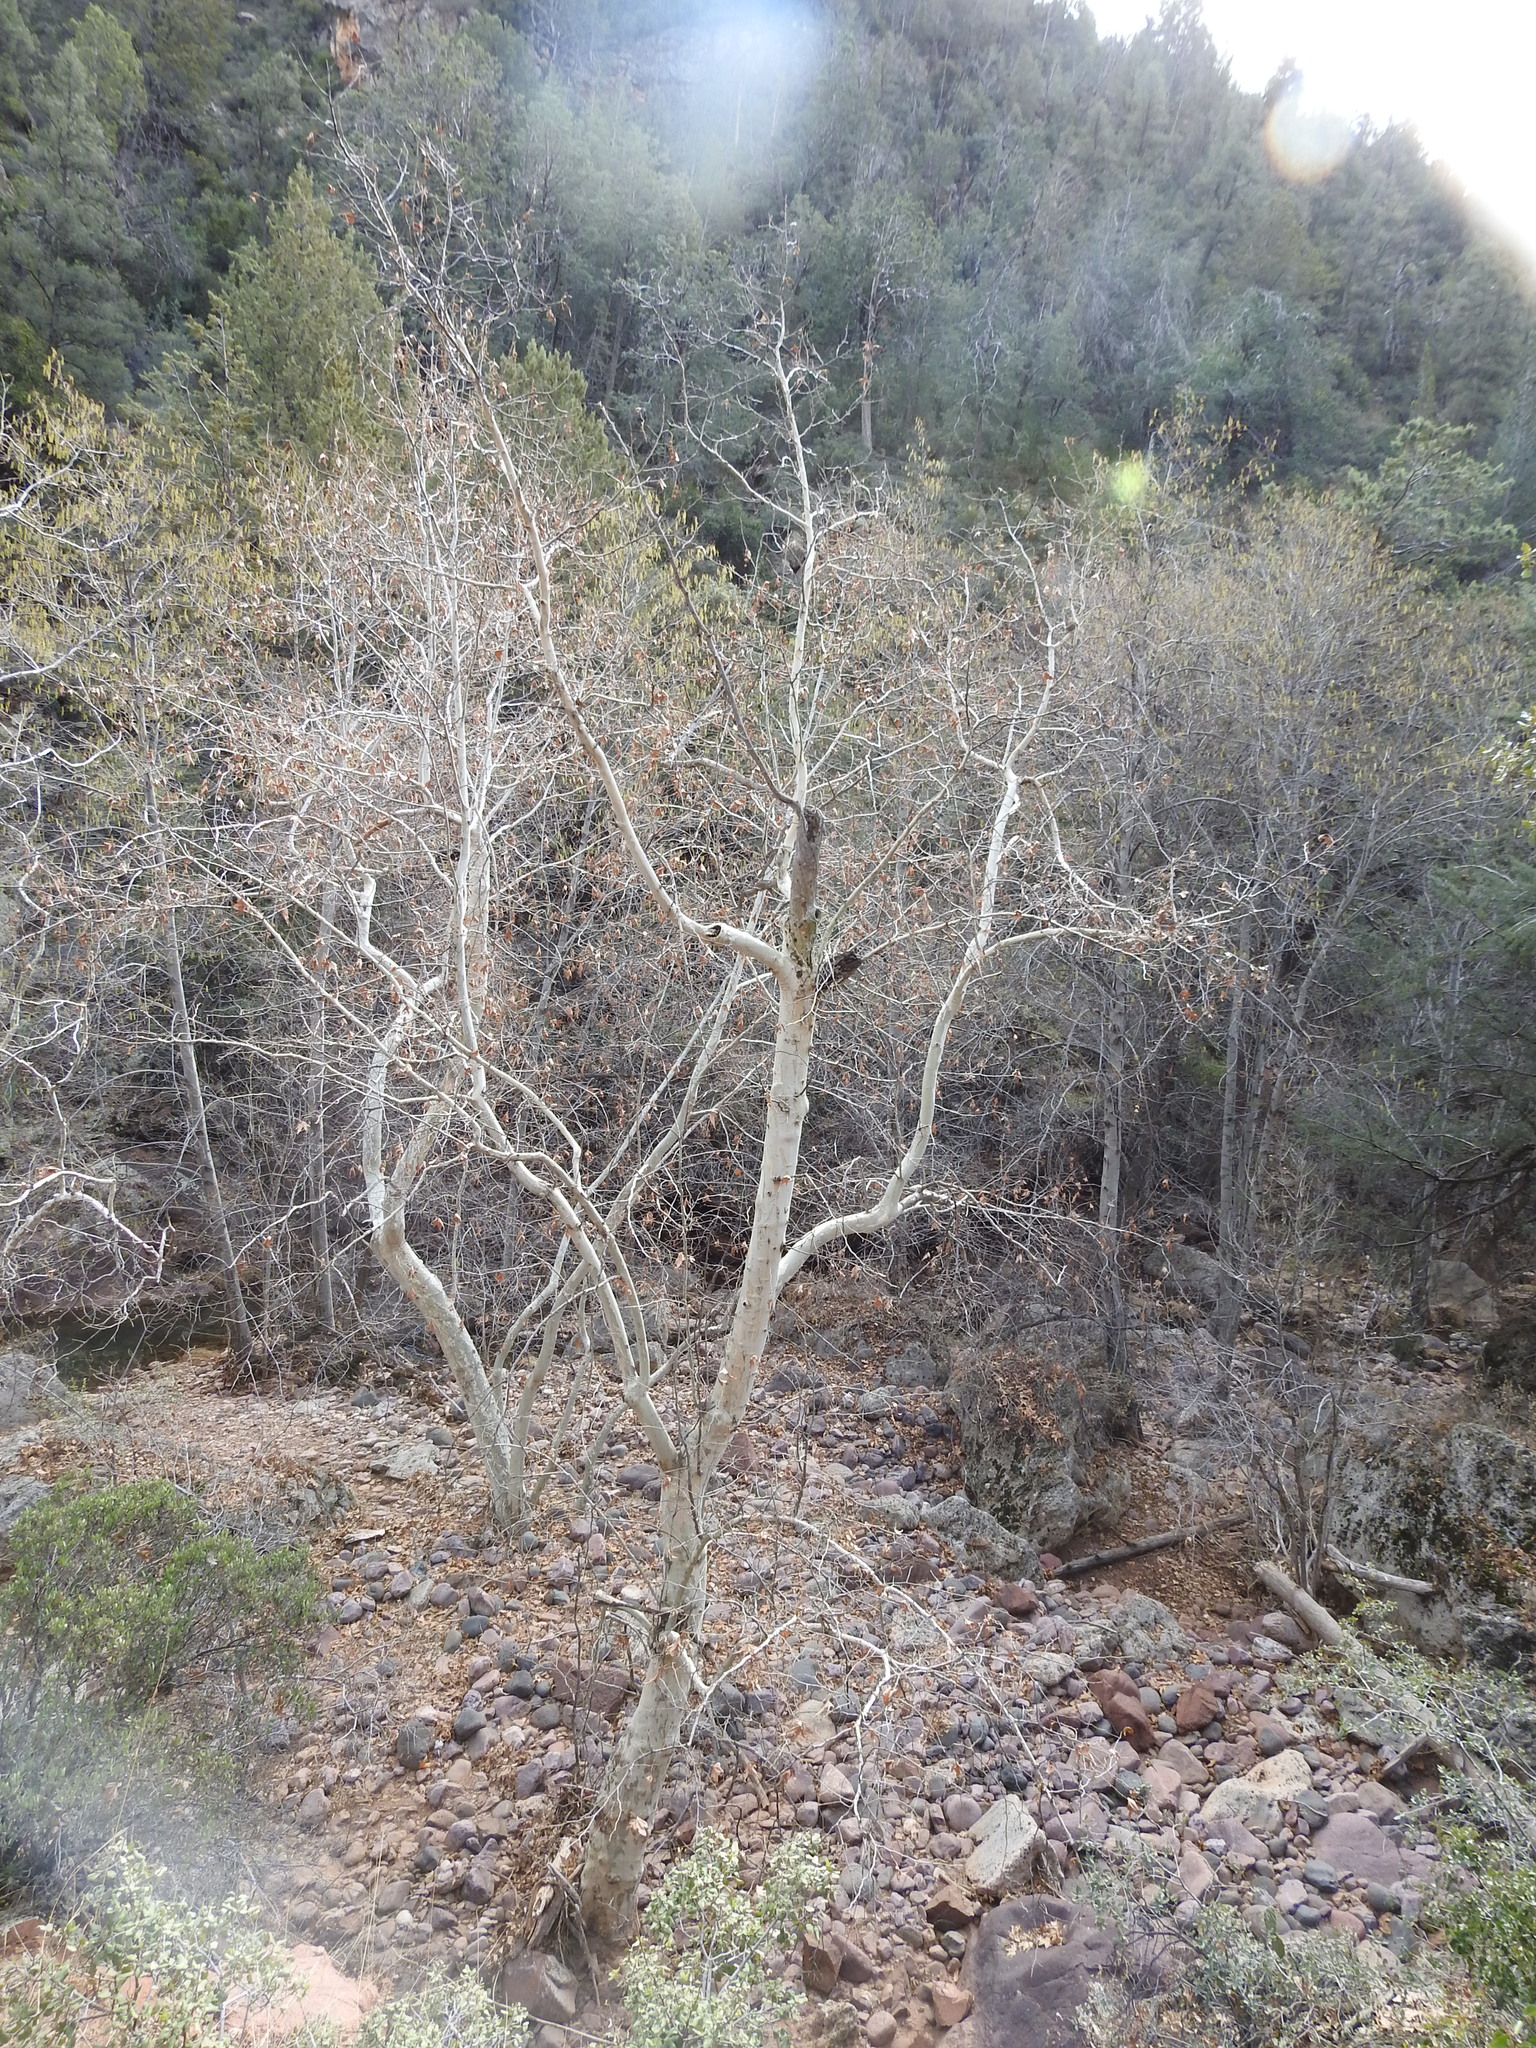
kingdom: Plantae
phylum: Tracheophyta
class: Magnoliopsida
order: Proteales
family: Platanaceae
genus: Platanus
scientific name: Platanus wrightii
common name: Arizona sycamore
